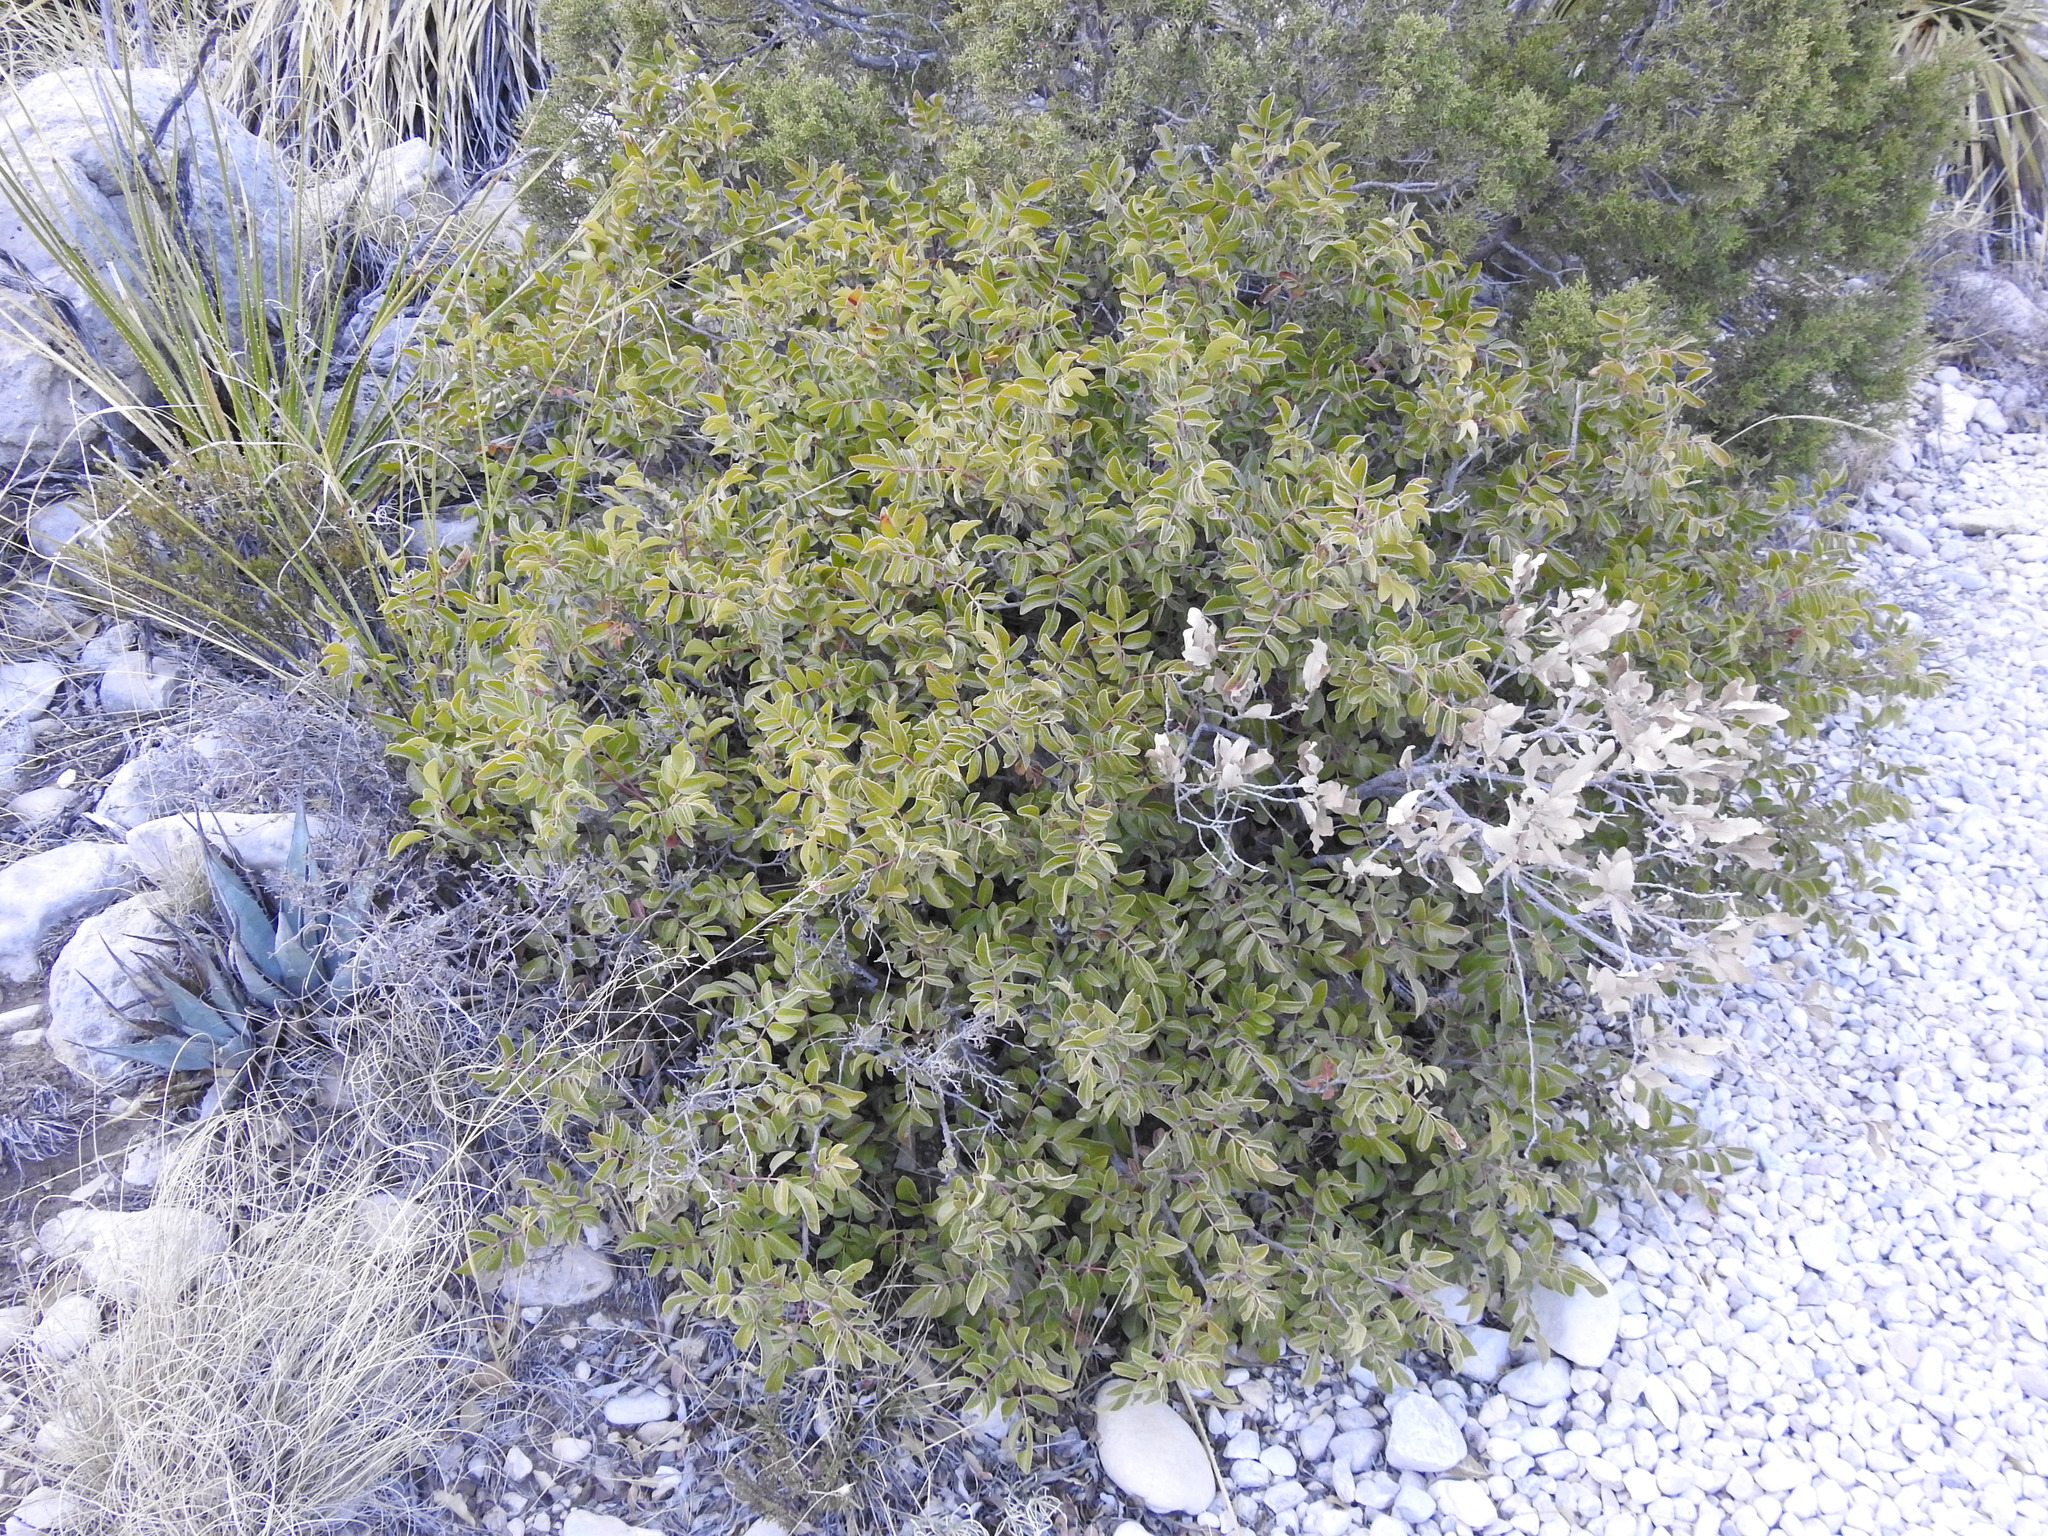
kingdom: Plantae
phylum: Tracheophyta
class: Magnoliopsida
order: Sapindales
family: Anacardiaceae
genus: Rhus
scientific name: Rhus virens
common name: Evergreen sumac
